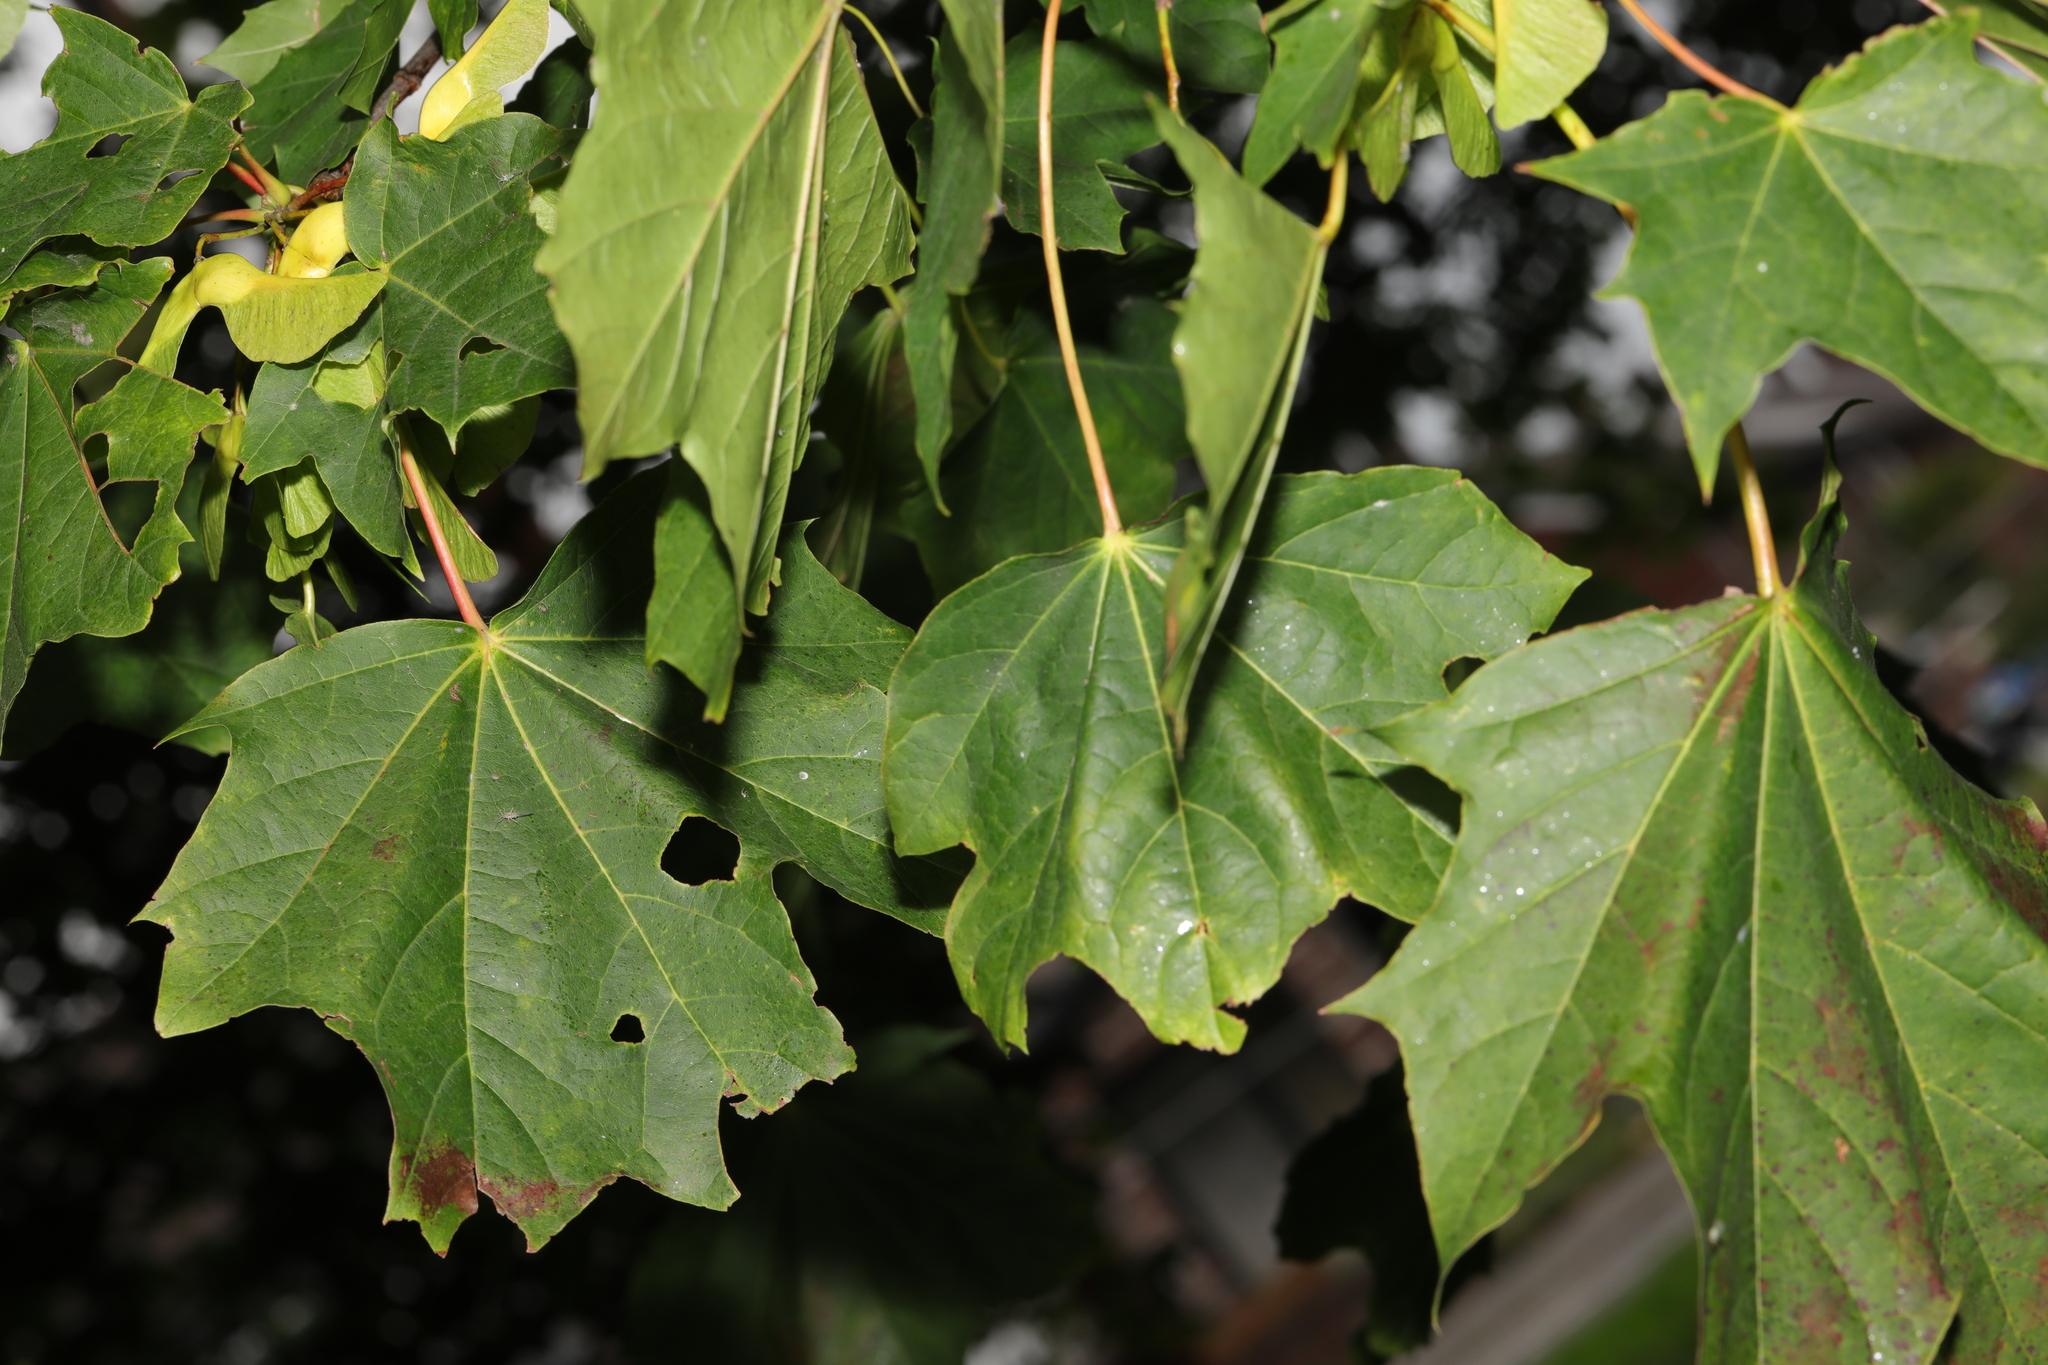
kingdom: Plantae
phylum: Tracheophyta
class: Magnoliopsida
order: Sapindales
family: Sapindaceae
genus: Acer
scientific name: Acer platanoides
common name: Norway maple
